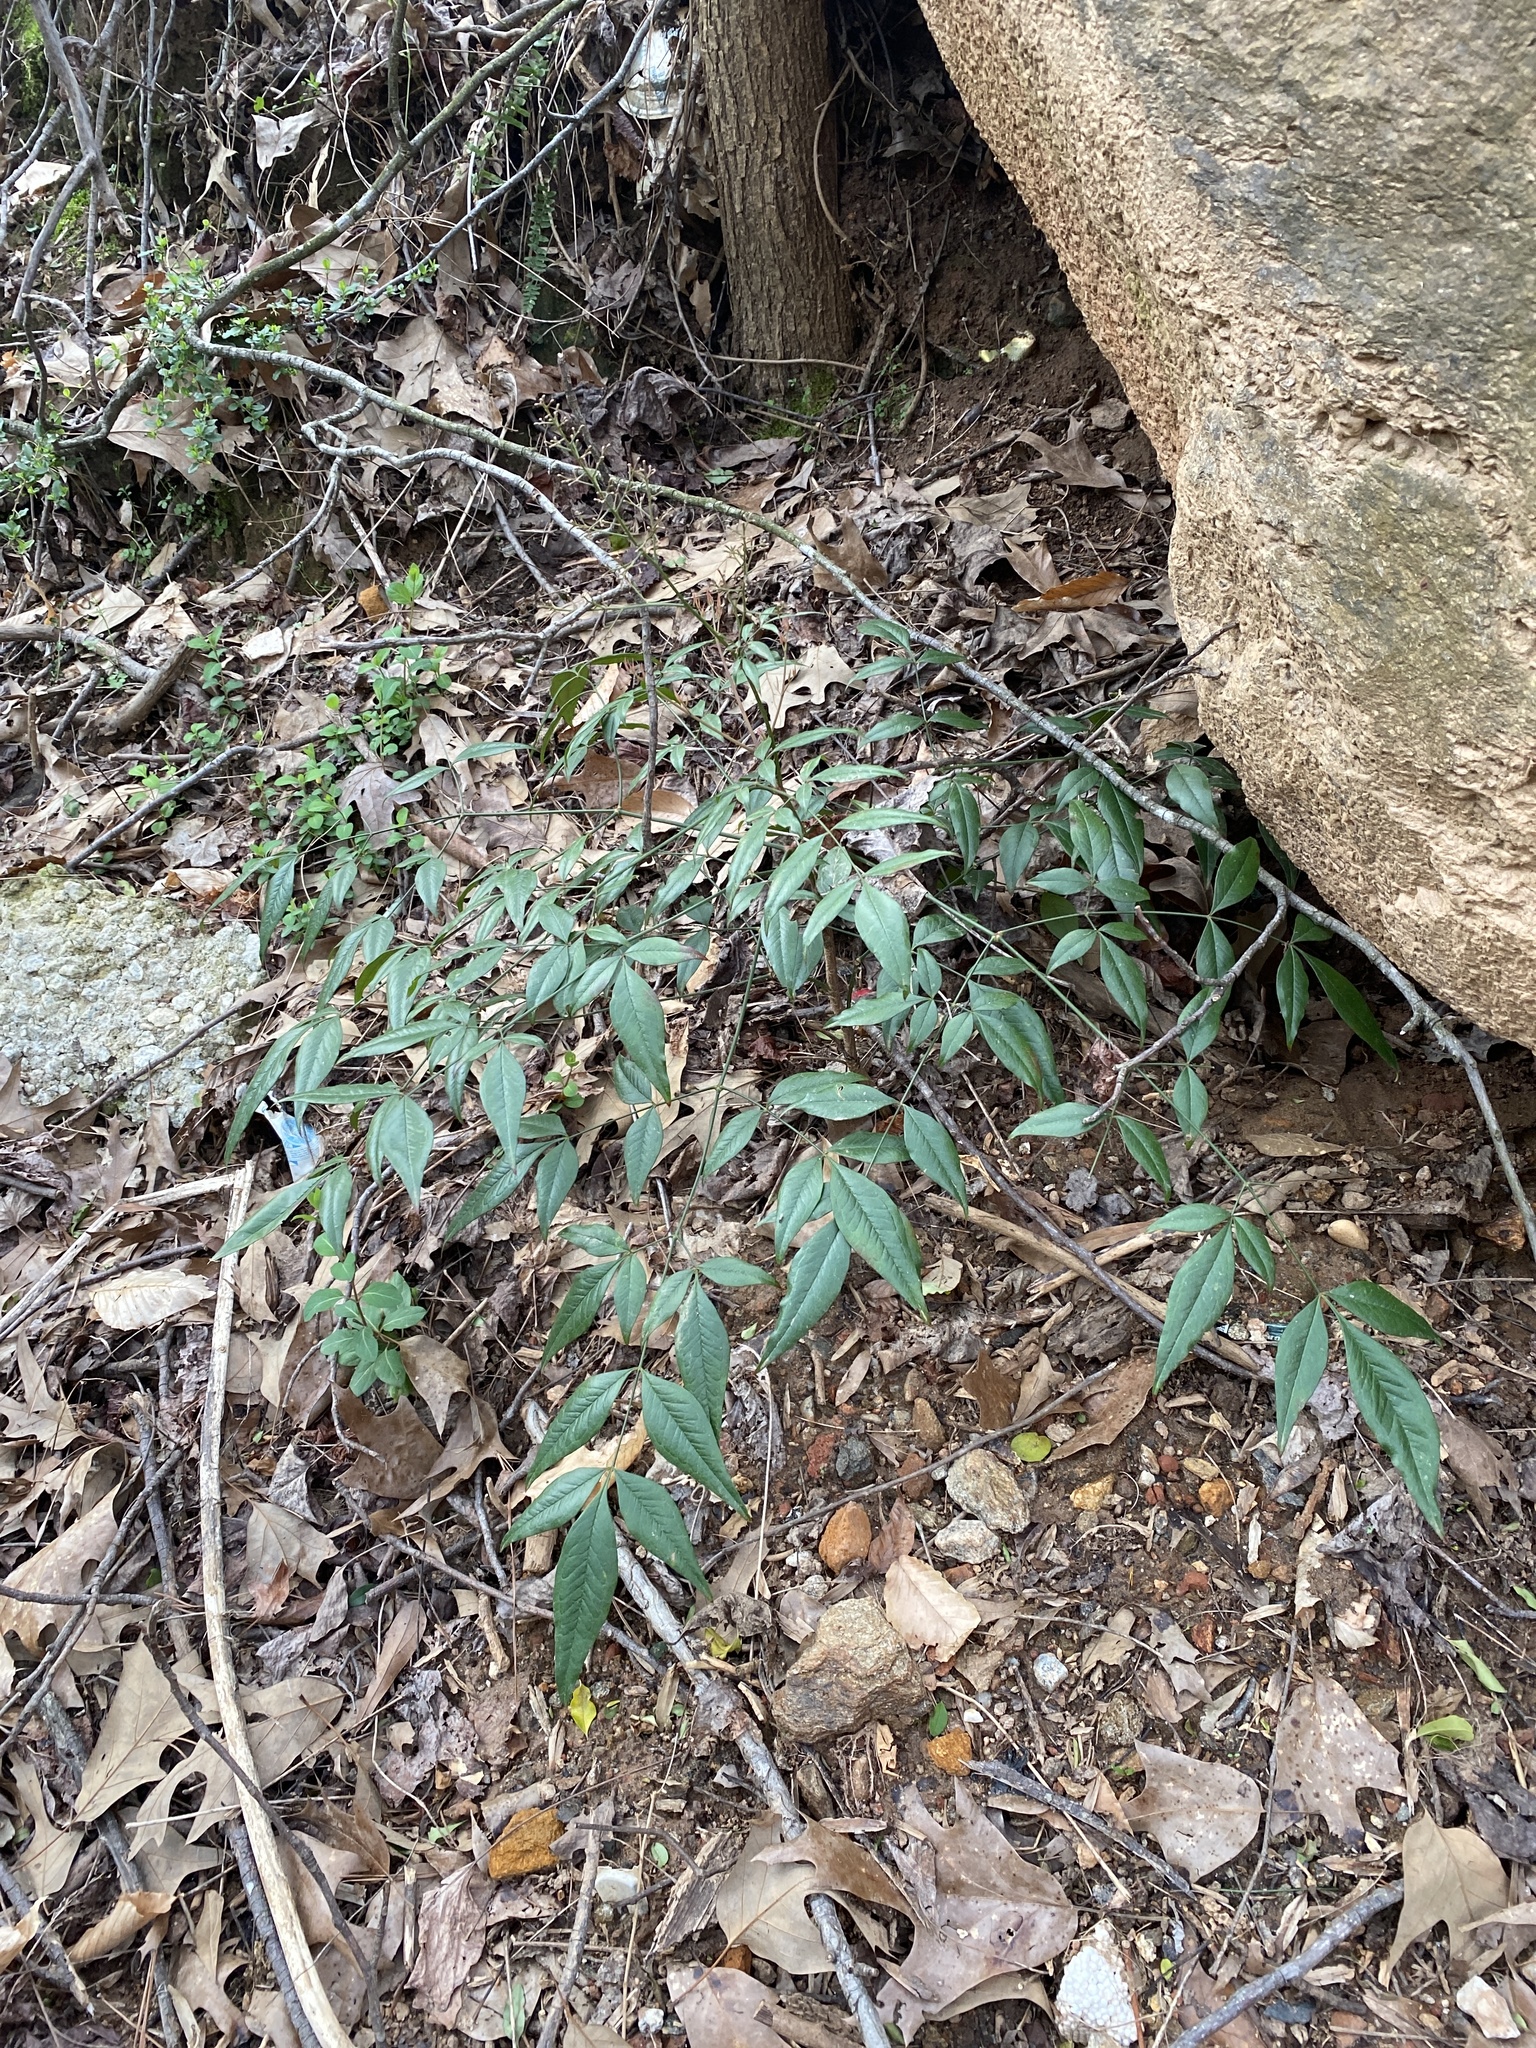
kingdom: Plantae
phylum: Tracheophyta
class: Magnoliopsida
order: Ranunculales
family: Berberidaceae
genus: Nandina
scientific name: Nandina domestica
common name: Sacred bamboo
